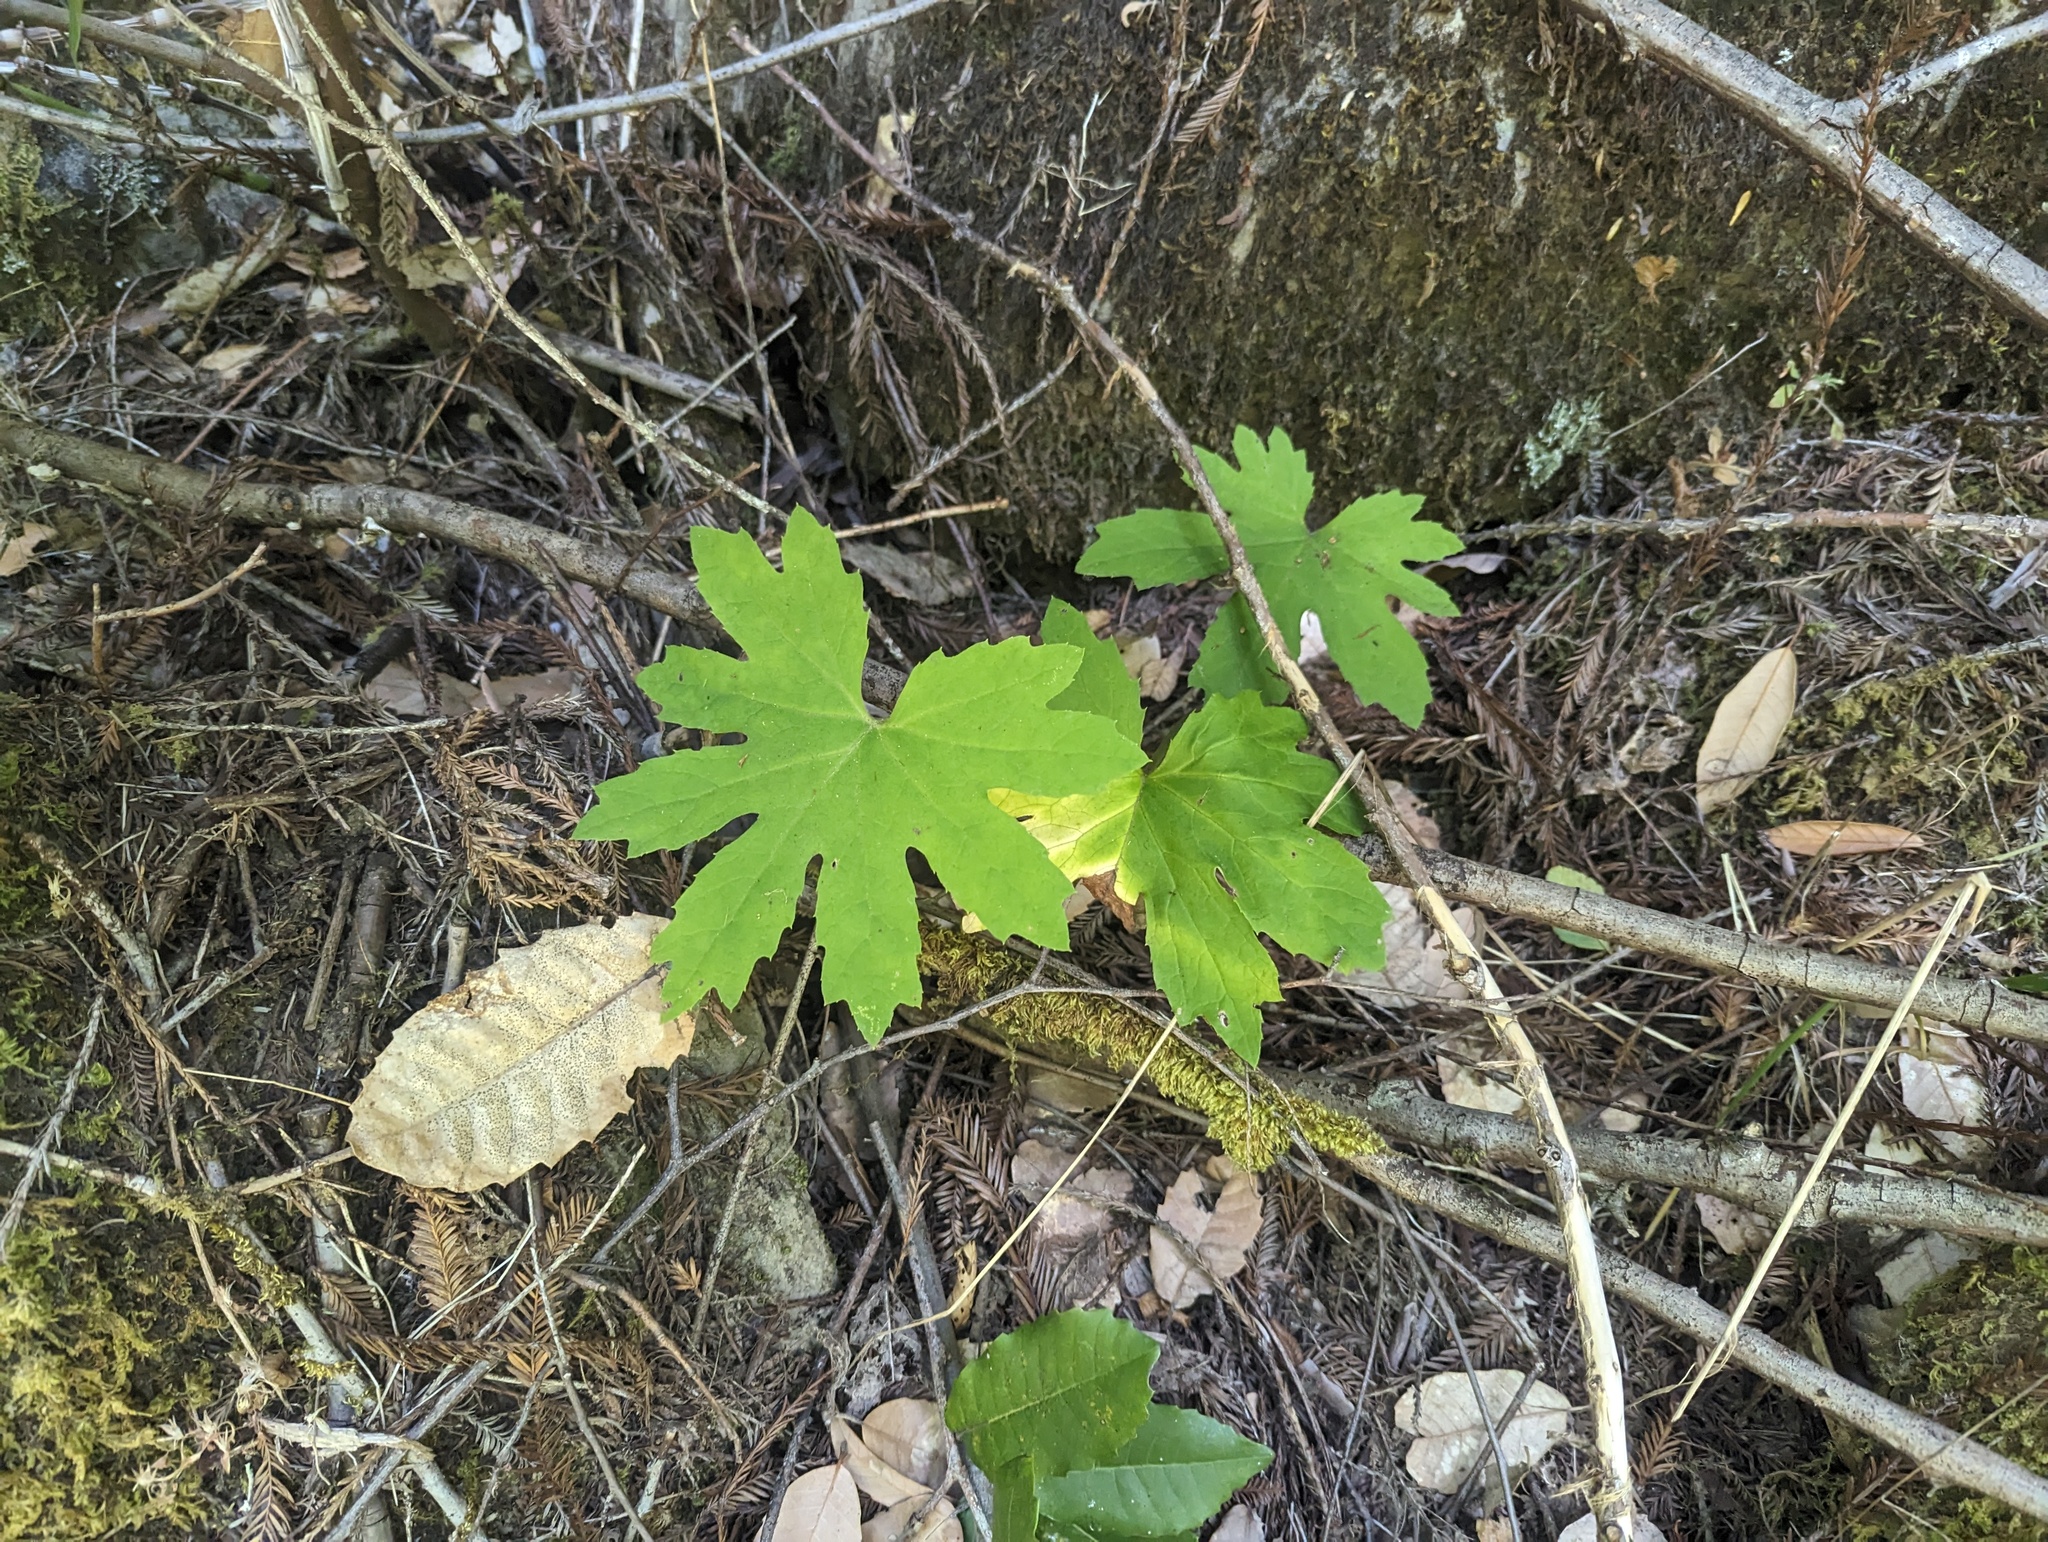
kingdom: Plantae
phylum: Tracheophyta
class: Magnoliopsida
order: Asterales
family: Asteraceae
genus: Petasites
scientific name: Petasites frigidus
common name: Arctic butterbur
